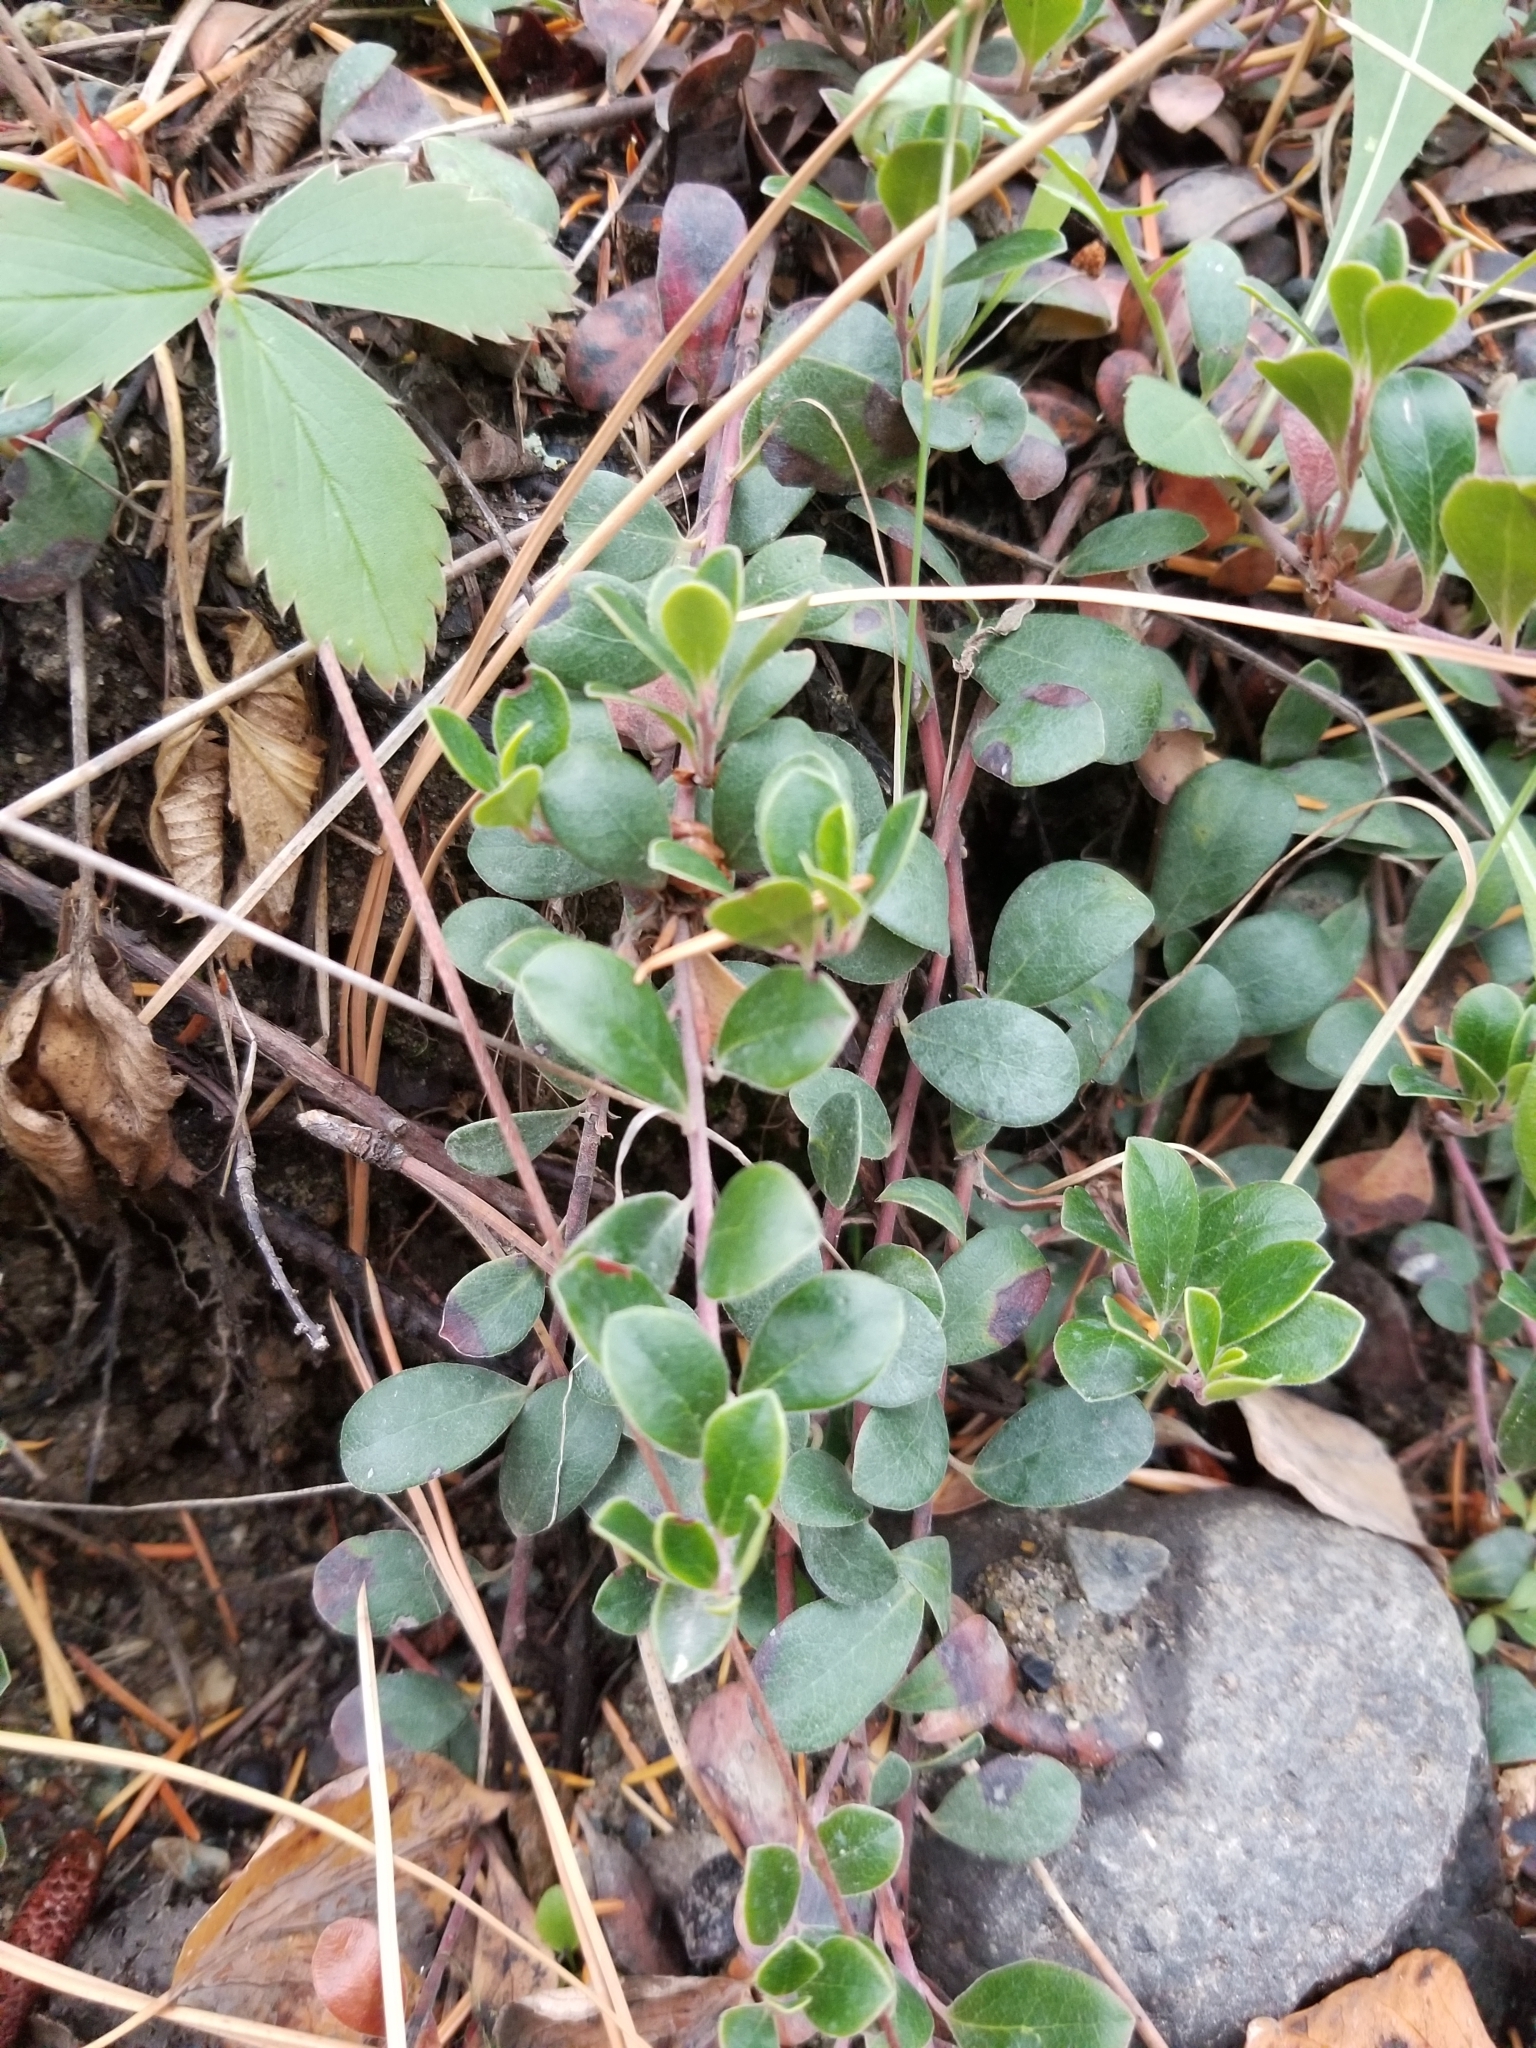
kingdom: Plantae
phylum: Tracheophyta
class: Magnoliopsida
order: Ericales
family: Ericaceae
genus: Arctostaphylos
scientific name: Arctostaphylos uva-ursi
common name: Bearberry
